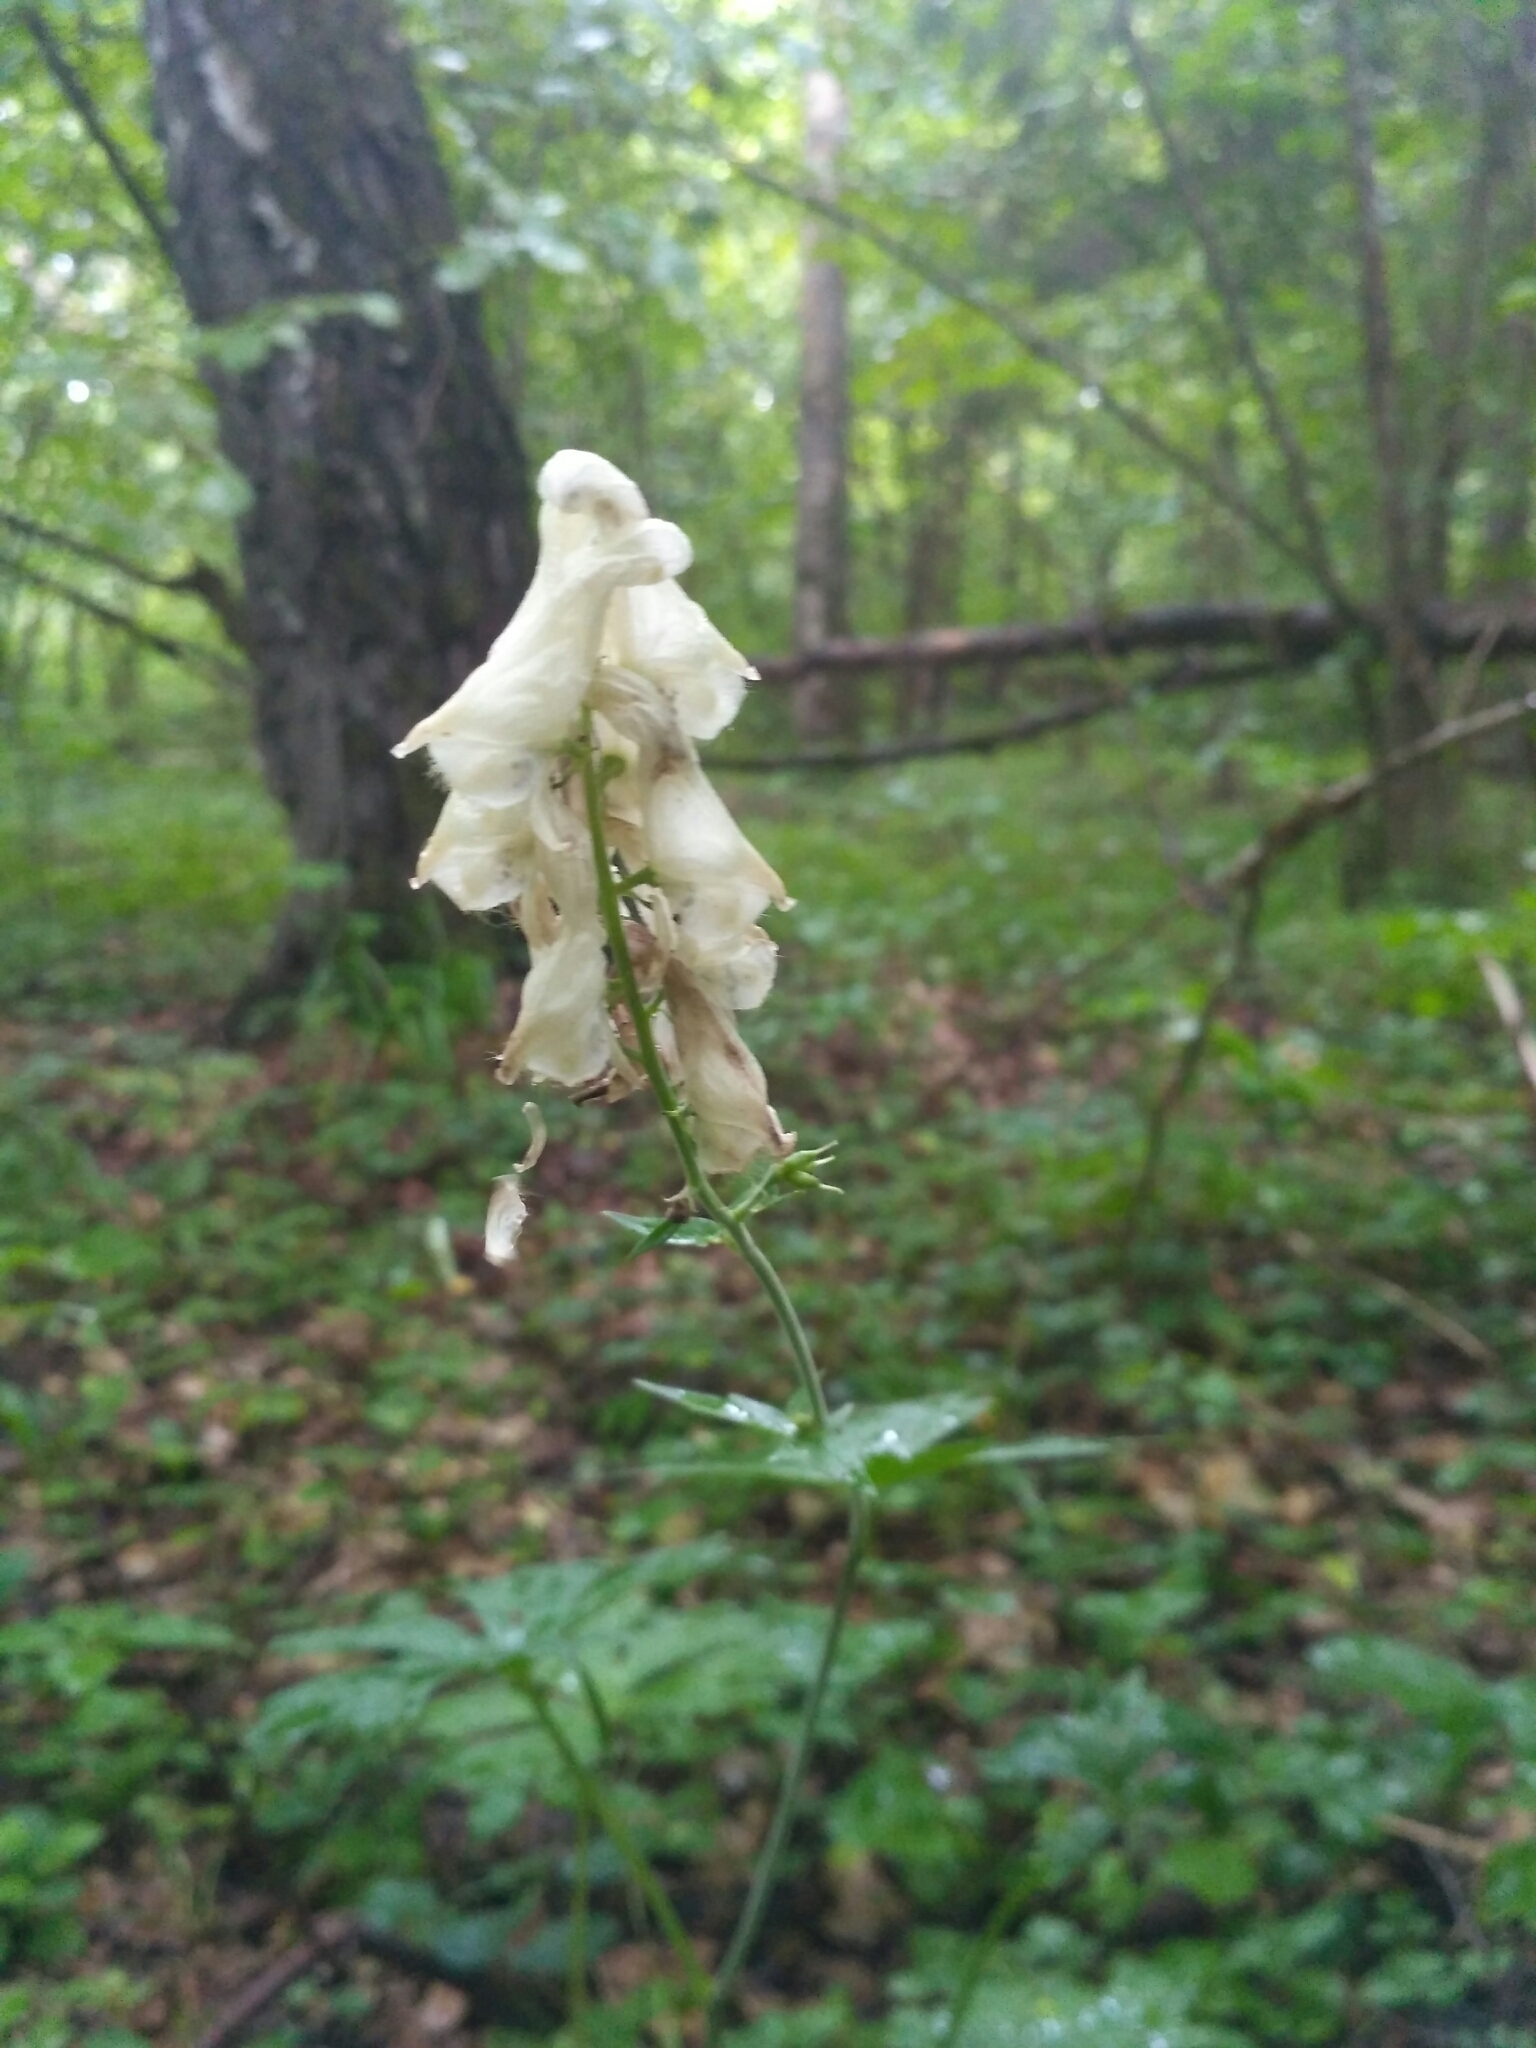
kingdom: Plantae
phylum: Tracheophyta
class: Magnoliopsida
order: Ranunculales
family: Ranunculaceae
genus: Aconitum
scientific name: Aconitum lasiostomum
